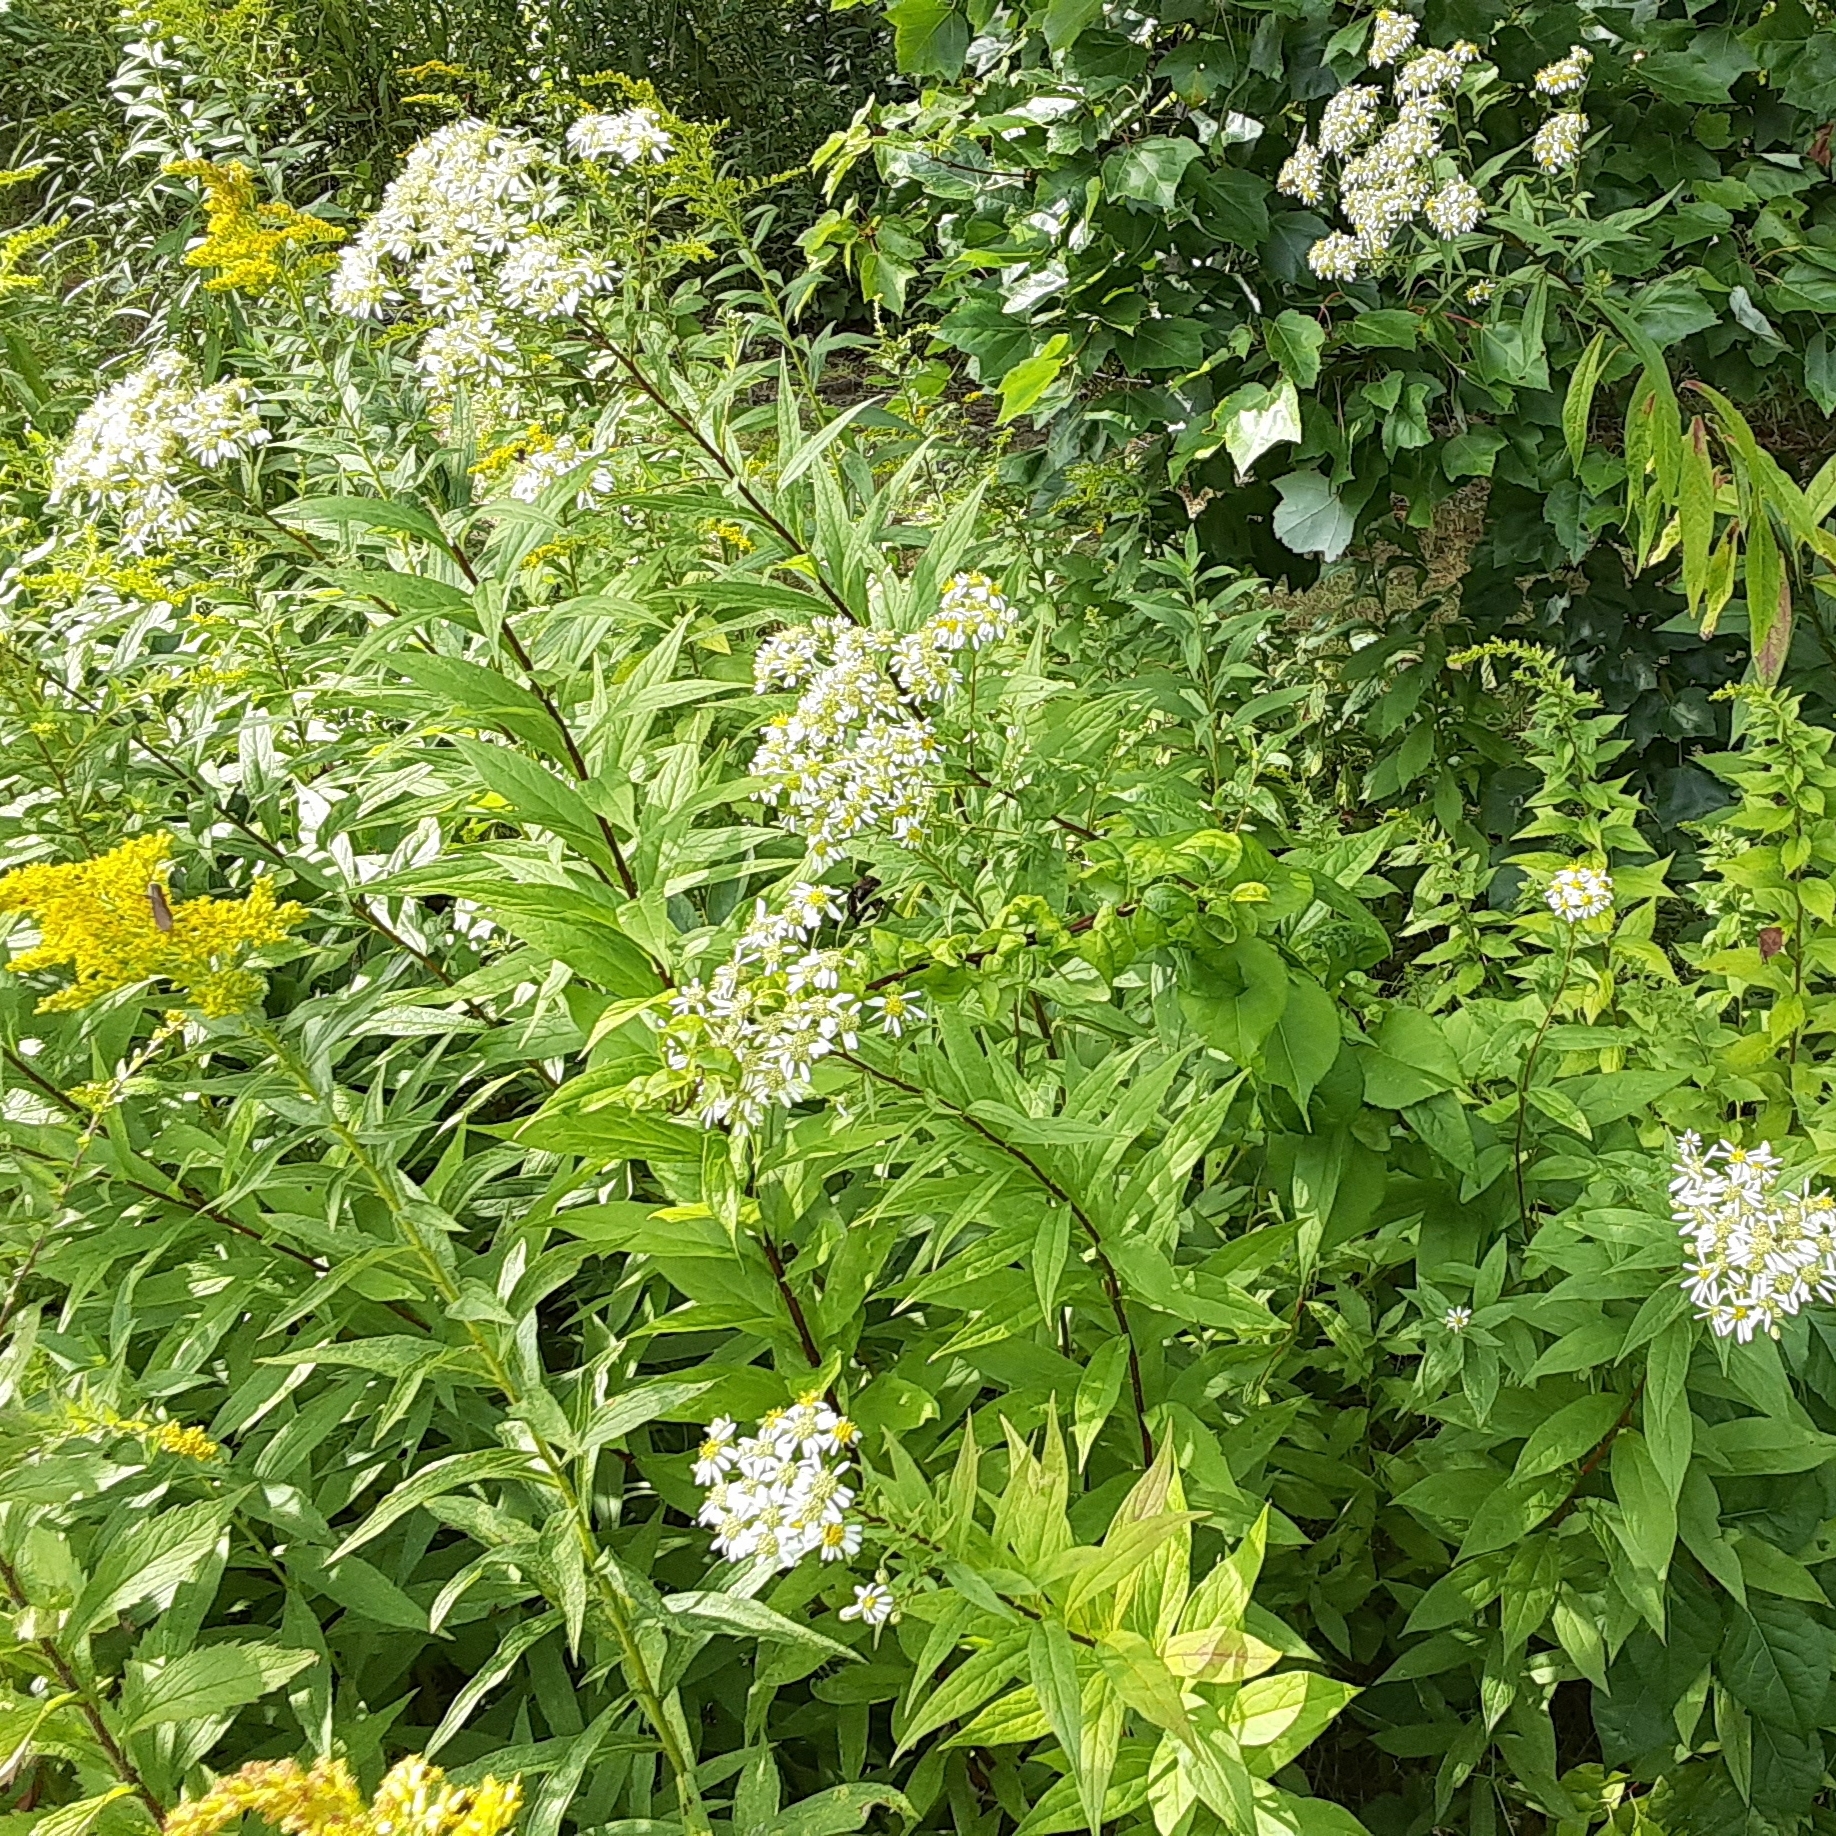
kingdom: Plantae
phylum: Tracheophyta
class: Magnoliopsida
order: Asterales
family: Asteraceae
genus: Doellingeria
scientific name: Doellingeria umbellata
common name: Flat-top white aster
